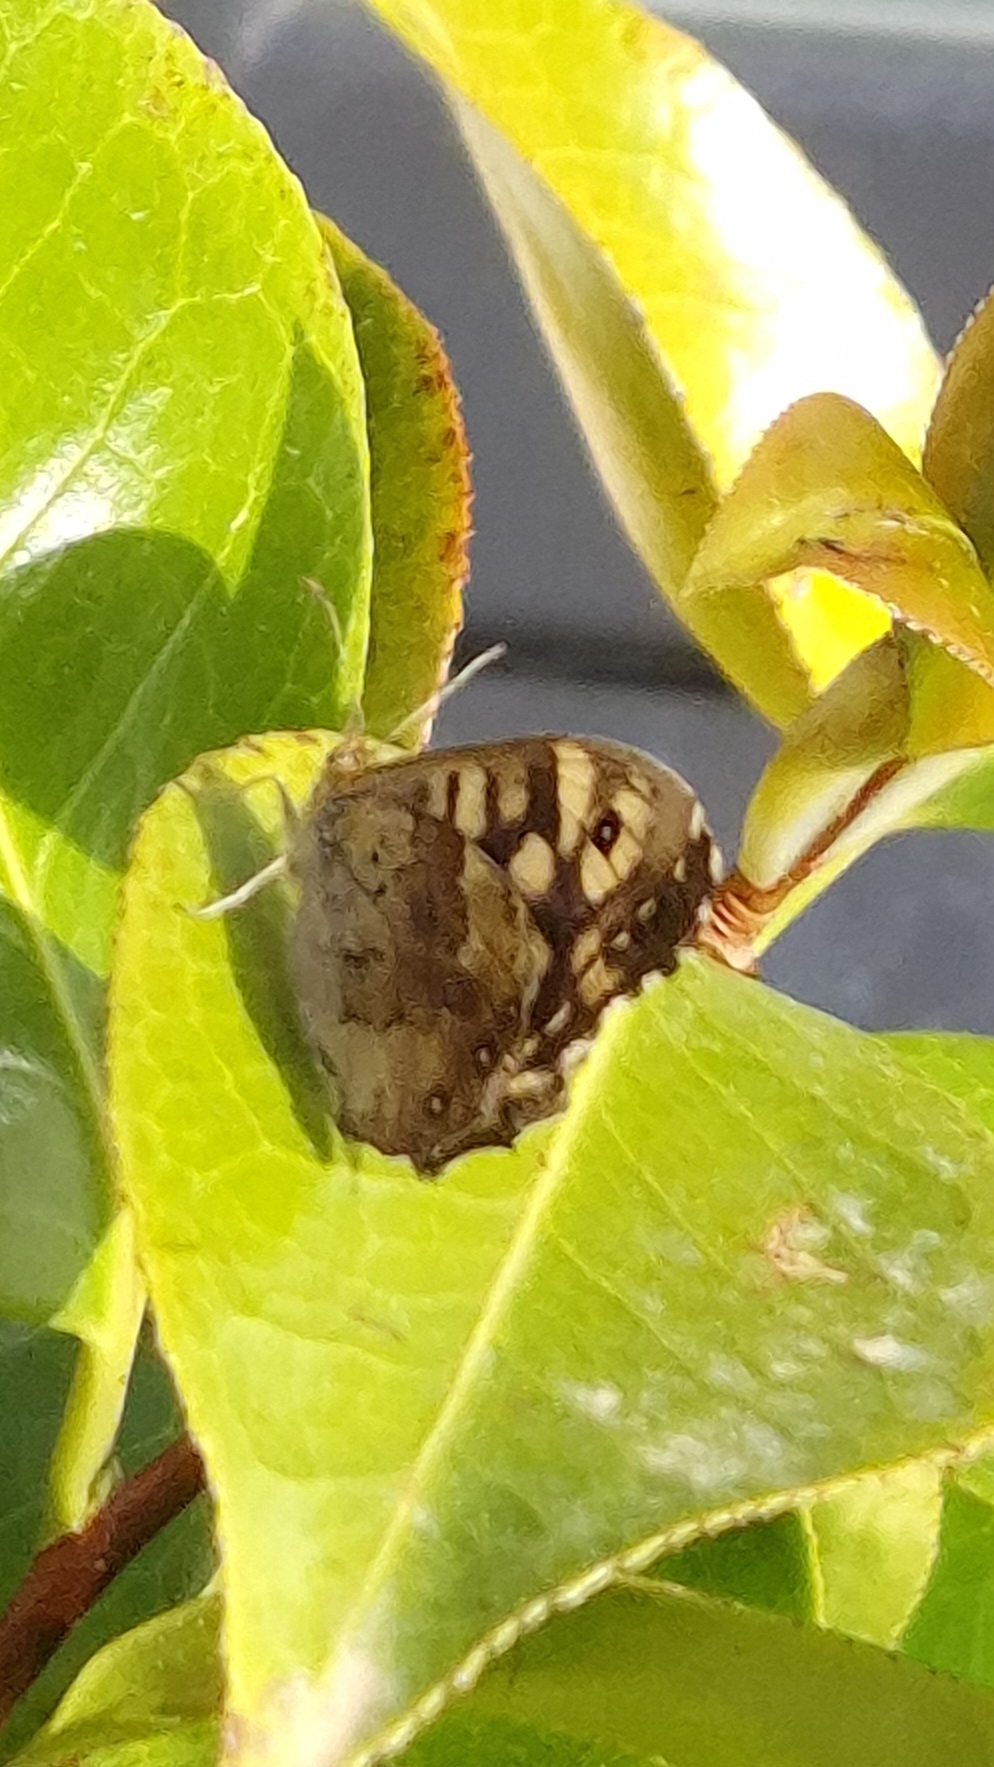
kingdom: Animalia
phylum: Arthropoda
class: Insecta
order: Lepidoptera
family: Nymphalidae
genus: Pararge
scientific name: Pararge aegeria
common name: Speckled wood
